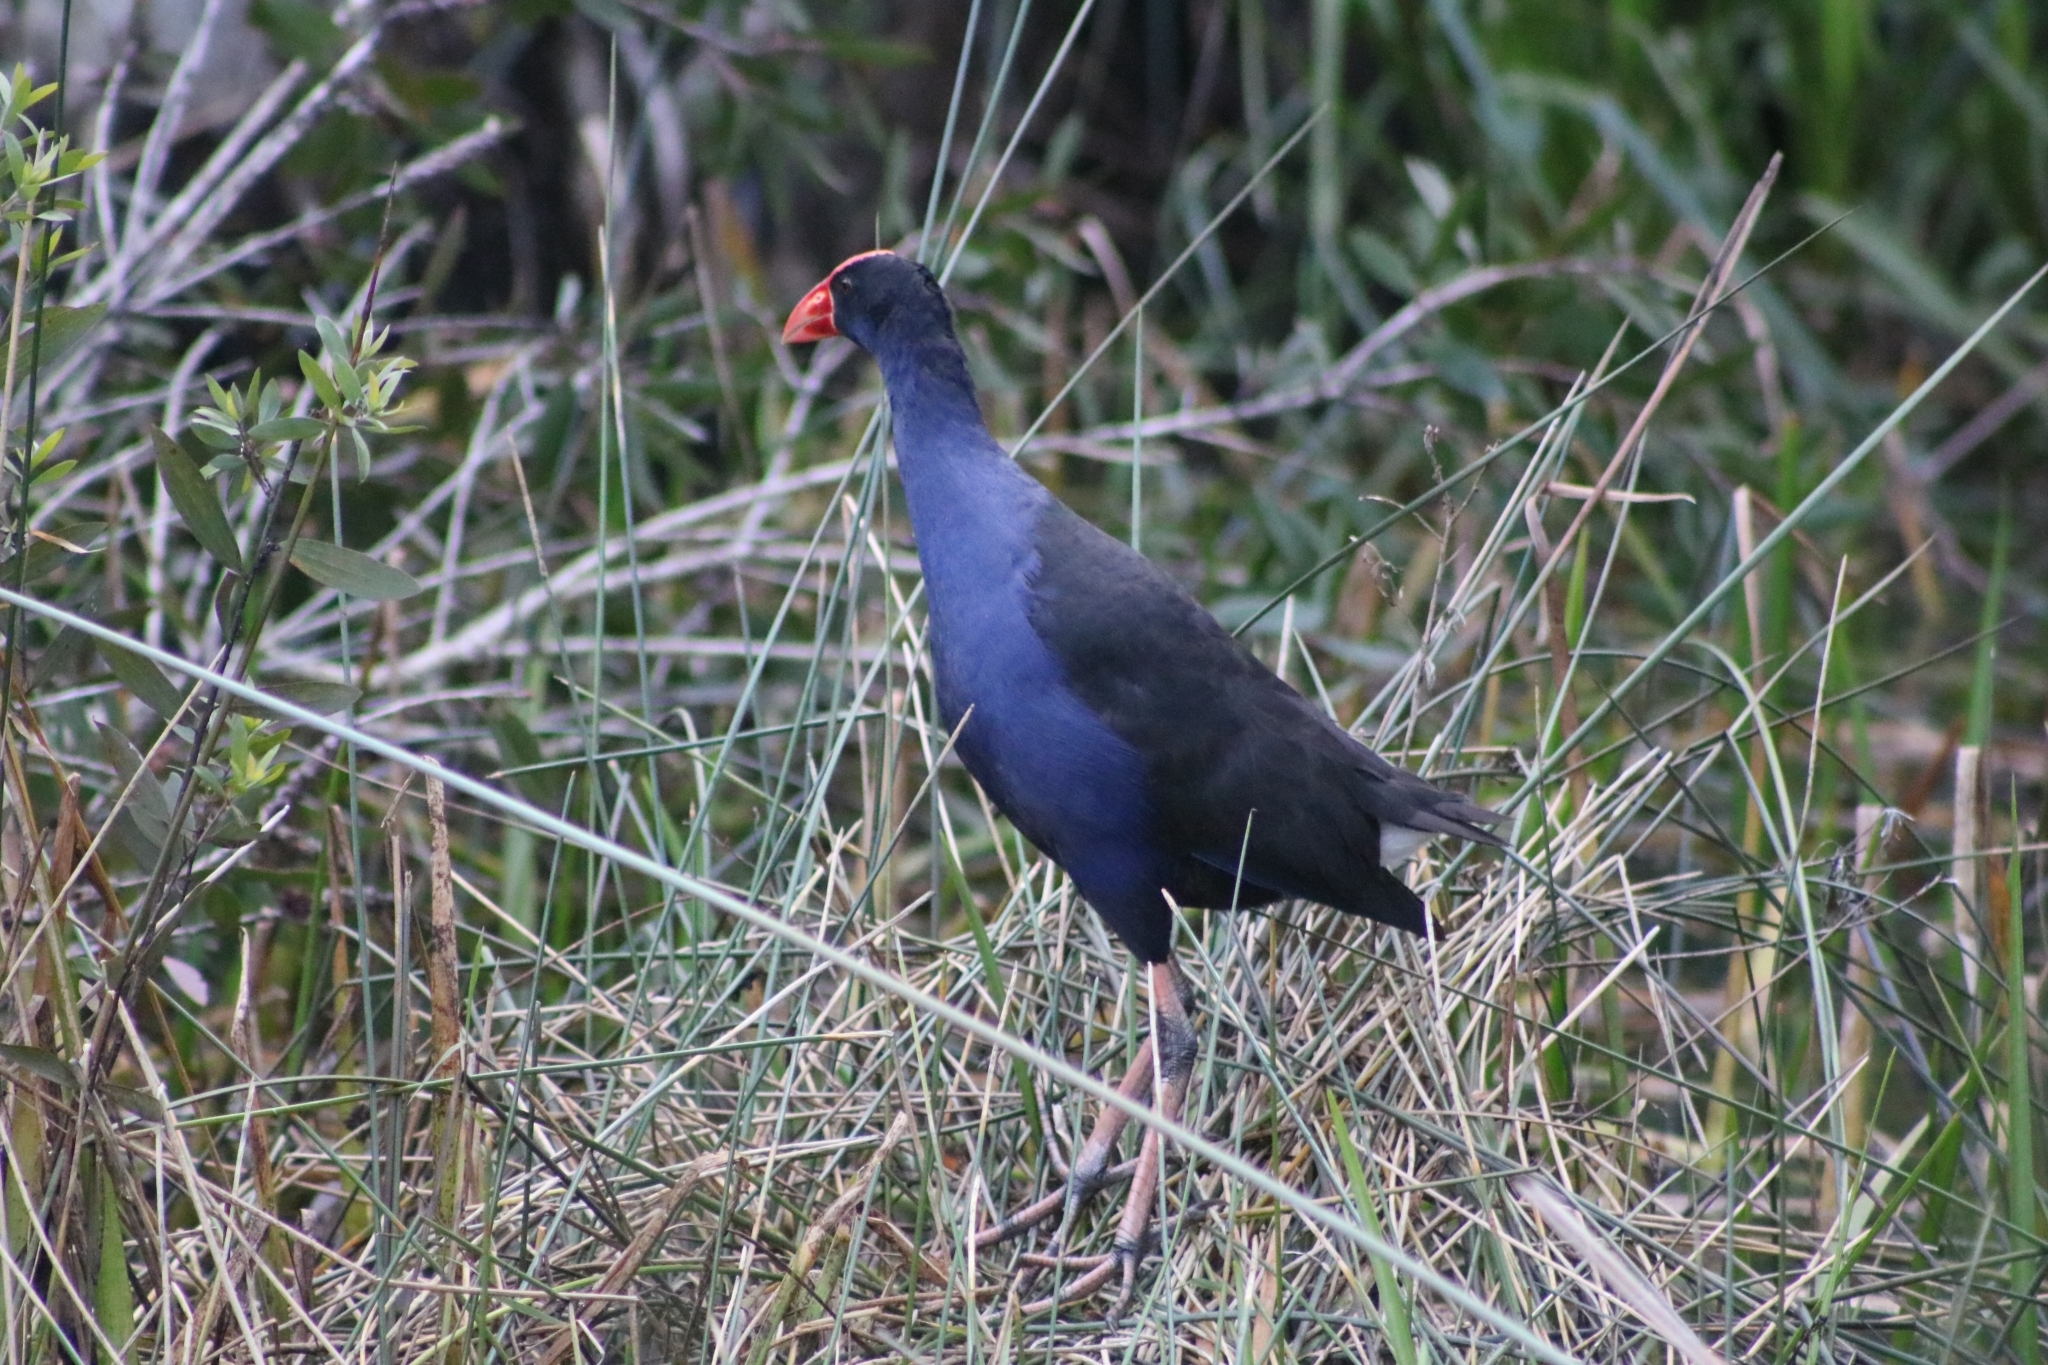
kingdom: Animalia
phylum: Chordata
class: Aves
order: Gruiformes
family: Rallidae
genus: Porphyrio
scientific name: Porphyrio melanotus
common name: Australasian swamphen
